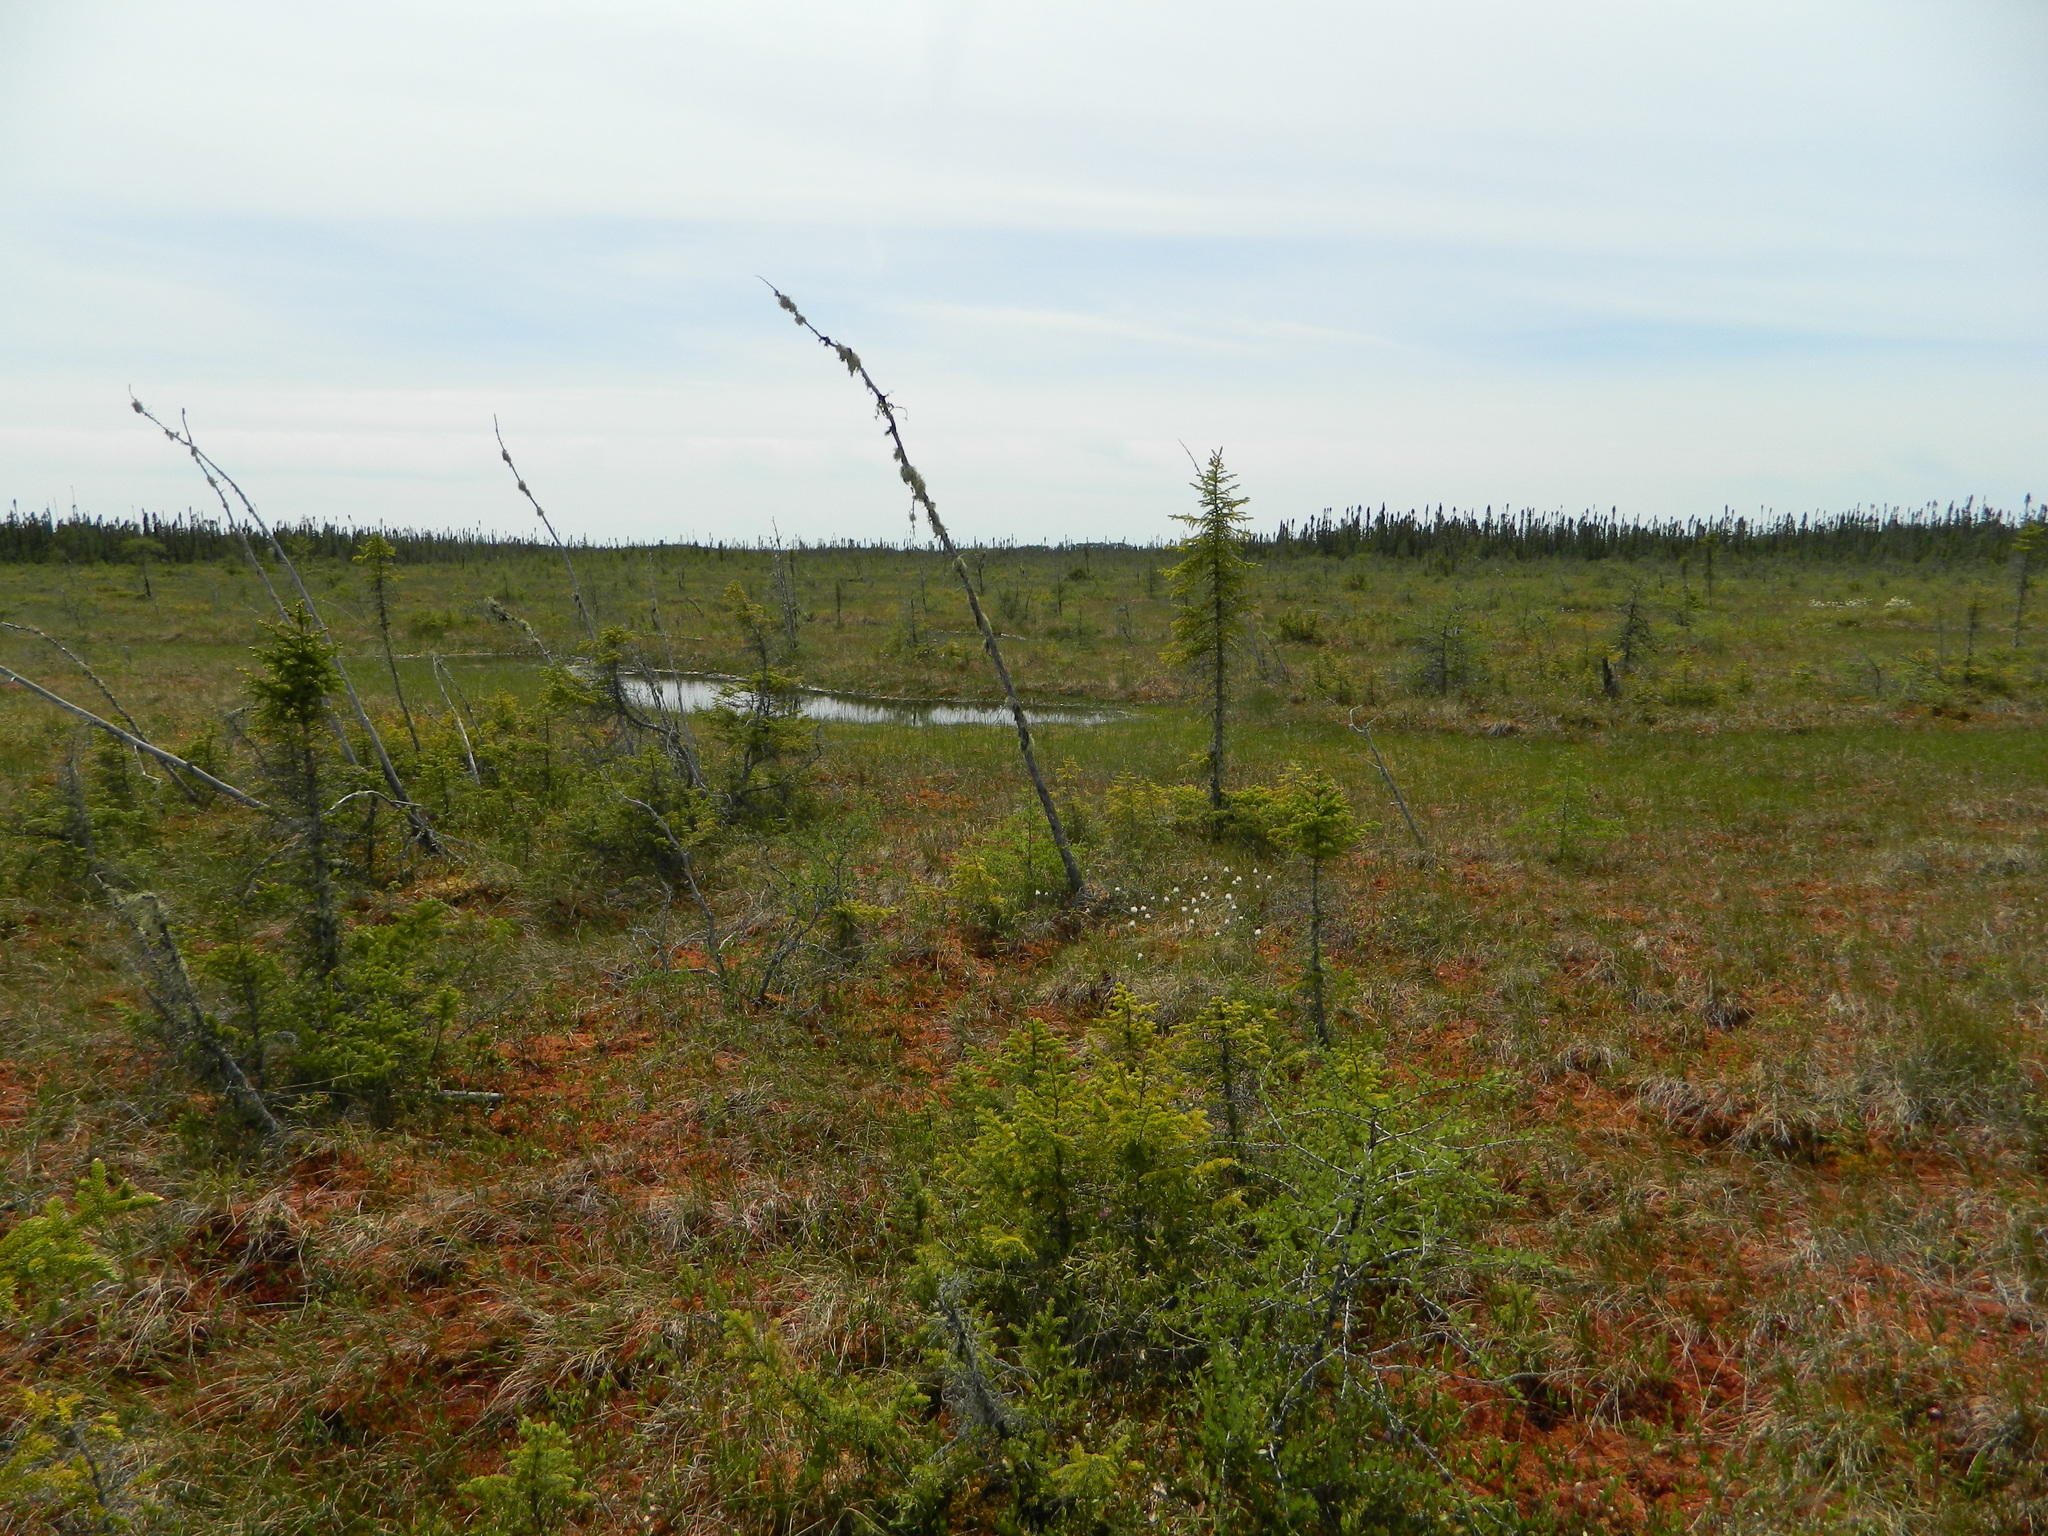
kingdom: Plantae
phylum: Tracheophyta
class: Pinopsida
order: Pinales
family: Pinaceae
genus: Picea
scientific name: Picea mariana
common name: Black spruce
